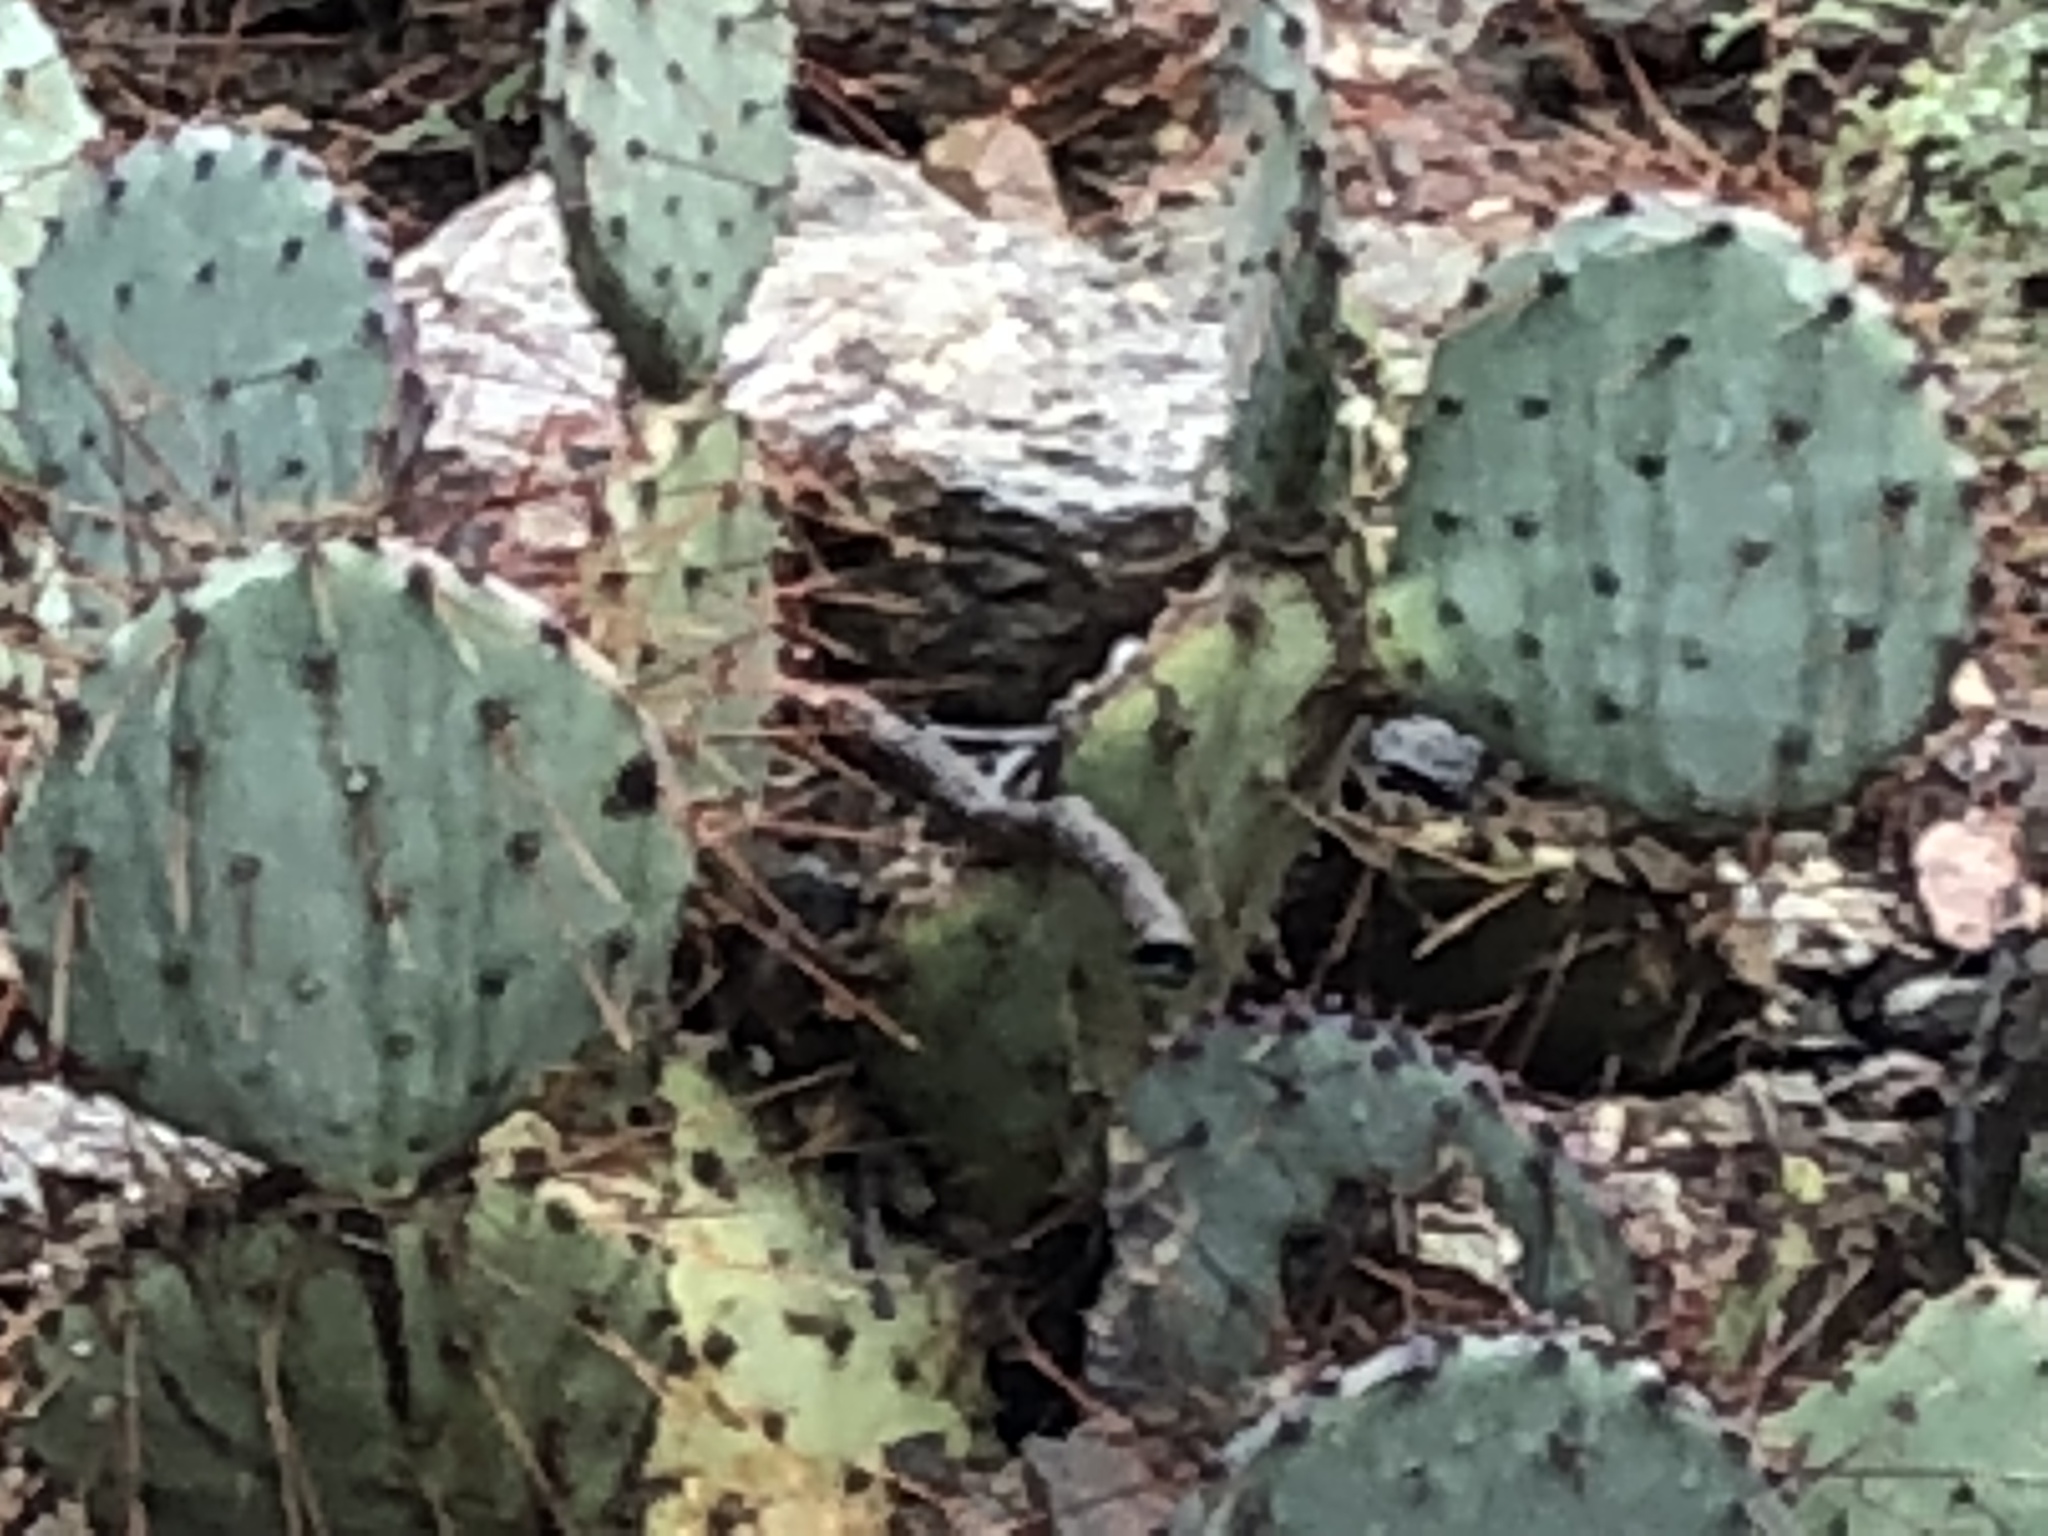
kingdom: Plantae
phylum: Tracheophyta
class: Magnoliopsida
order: Caryophyllales
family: Cactaceae
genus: Opuntia
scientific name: Opuntia engelmannii
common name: Cactus-apple
